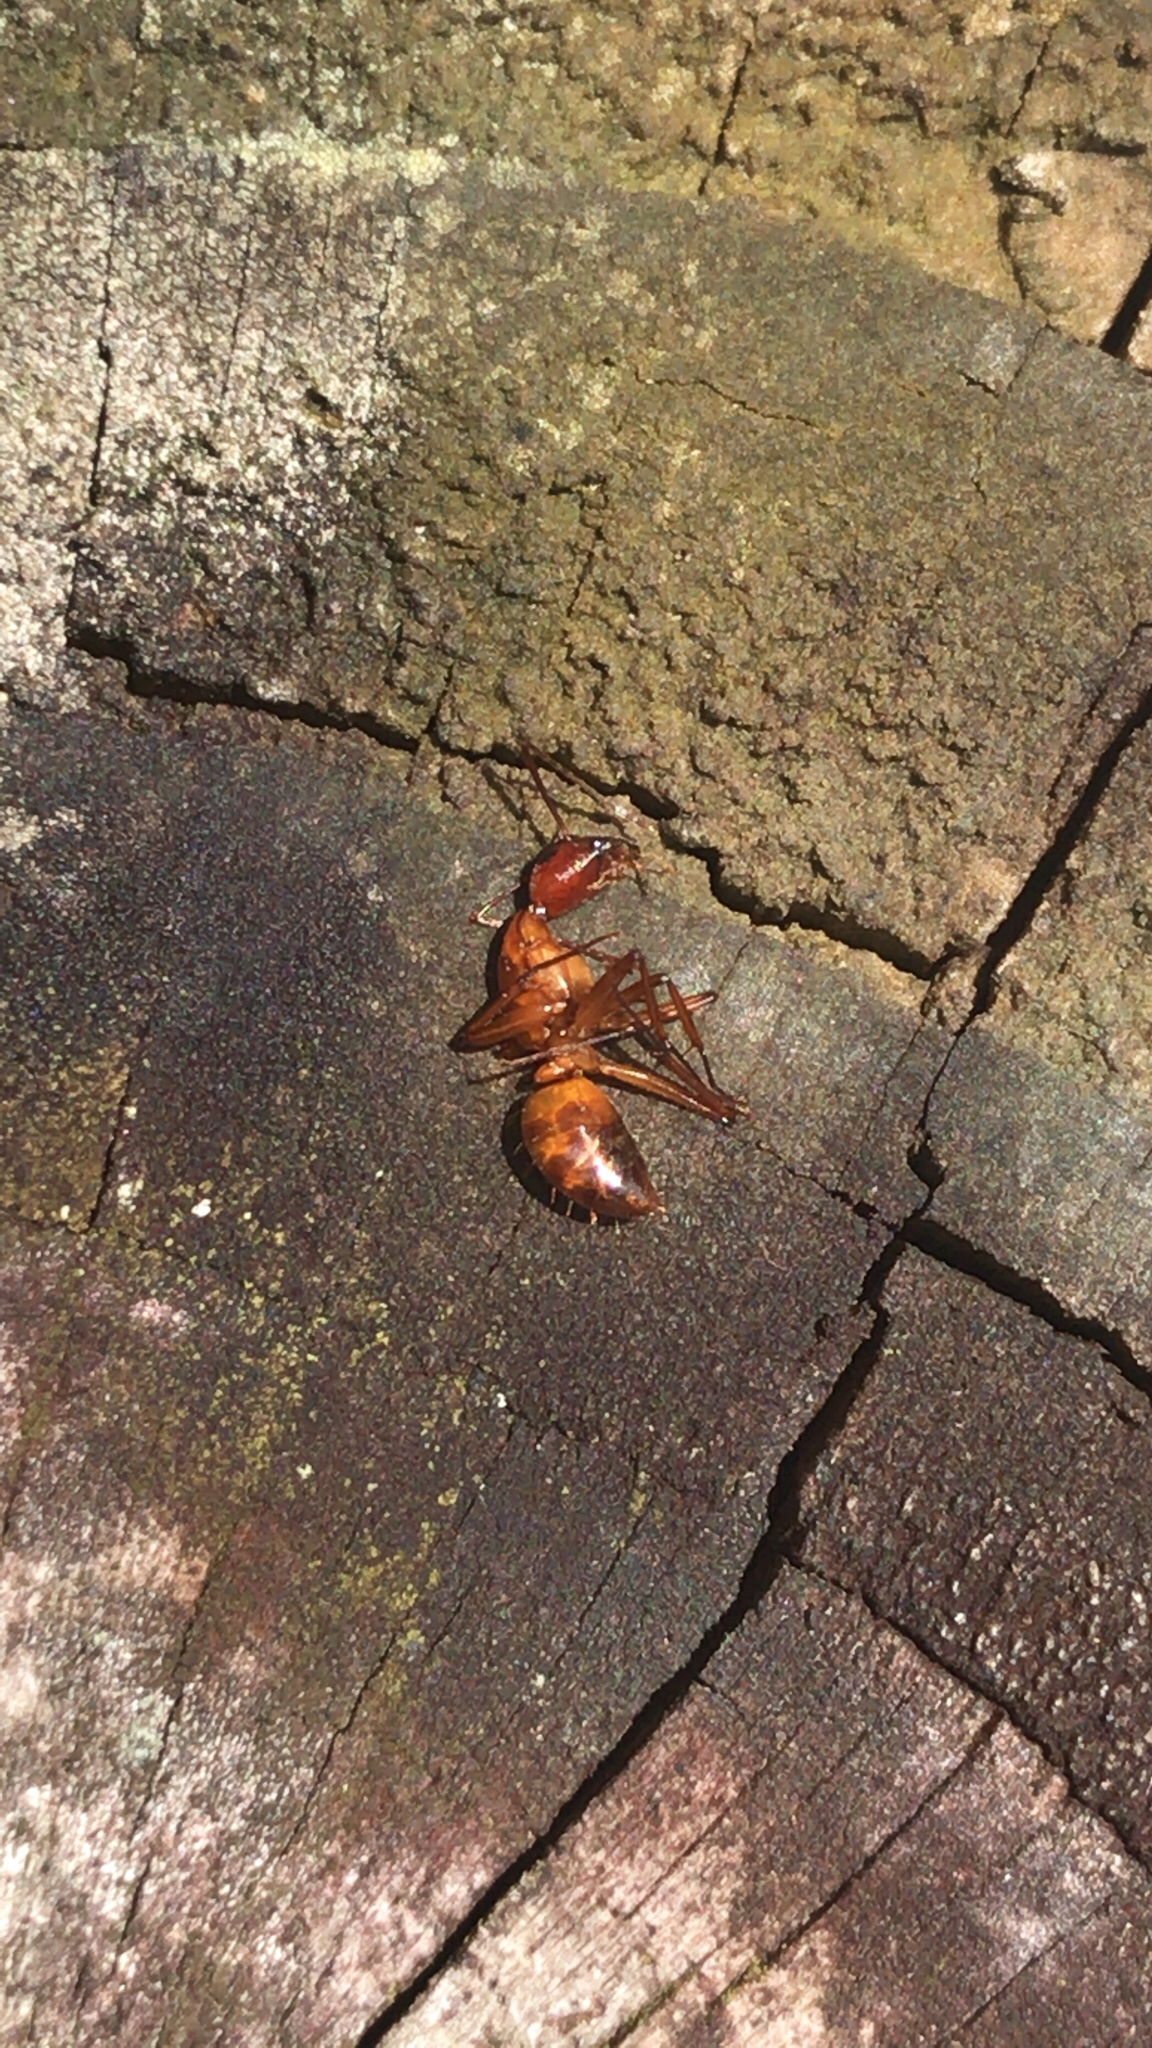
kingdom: Animalia
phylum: Arthropoda
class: Insecta
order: Hymenoptera
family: Formicidae
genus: Camponotus
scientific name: Camponotus castaneus
